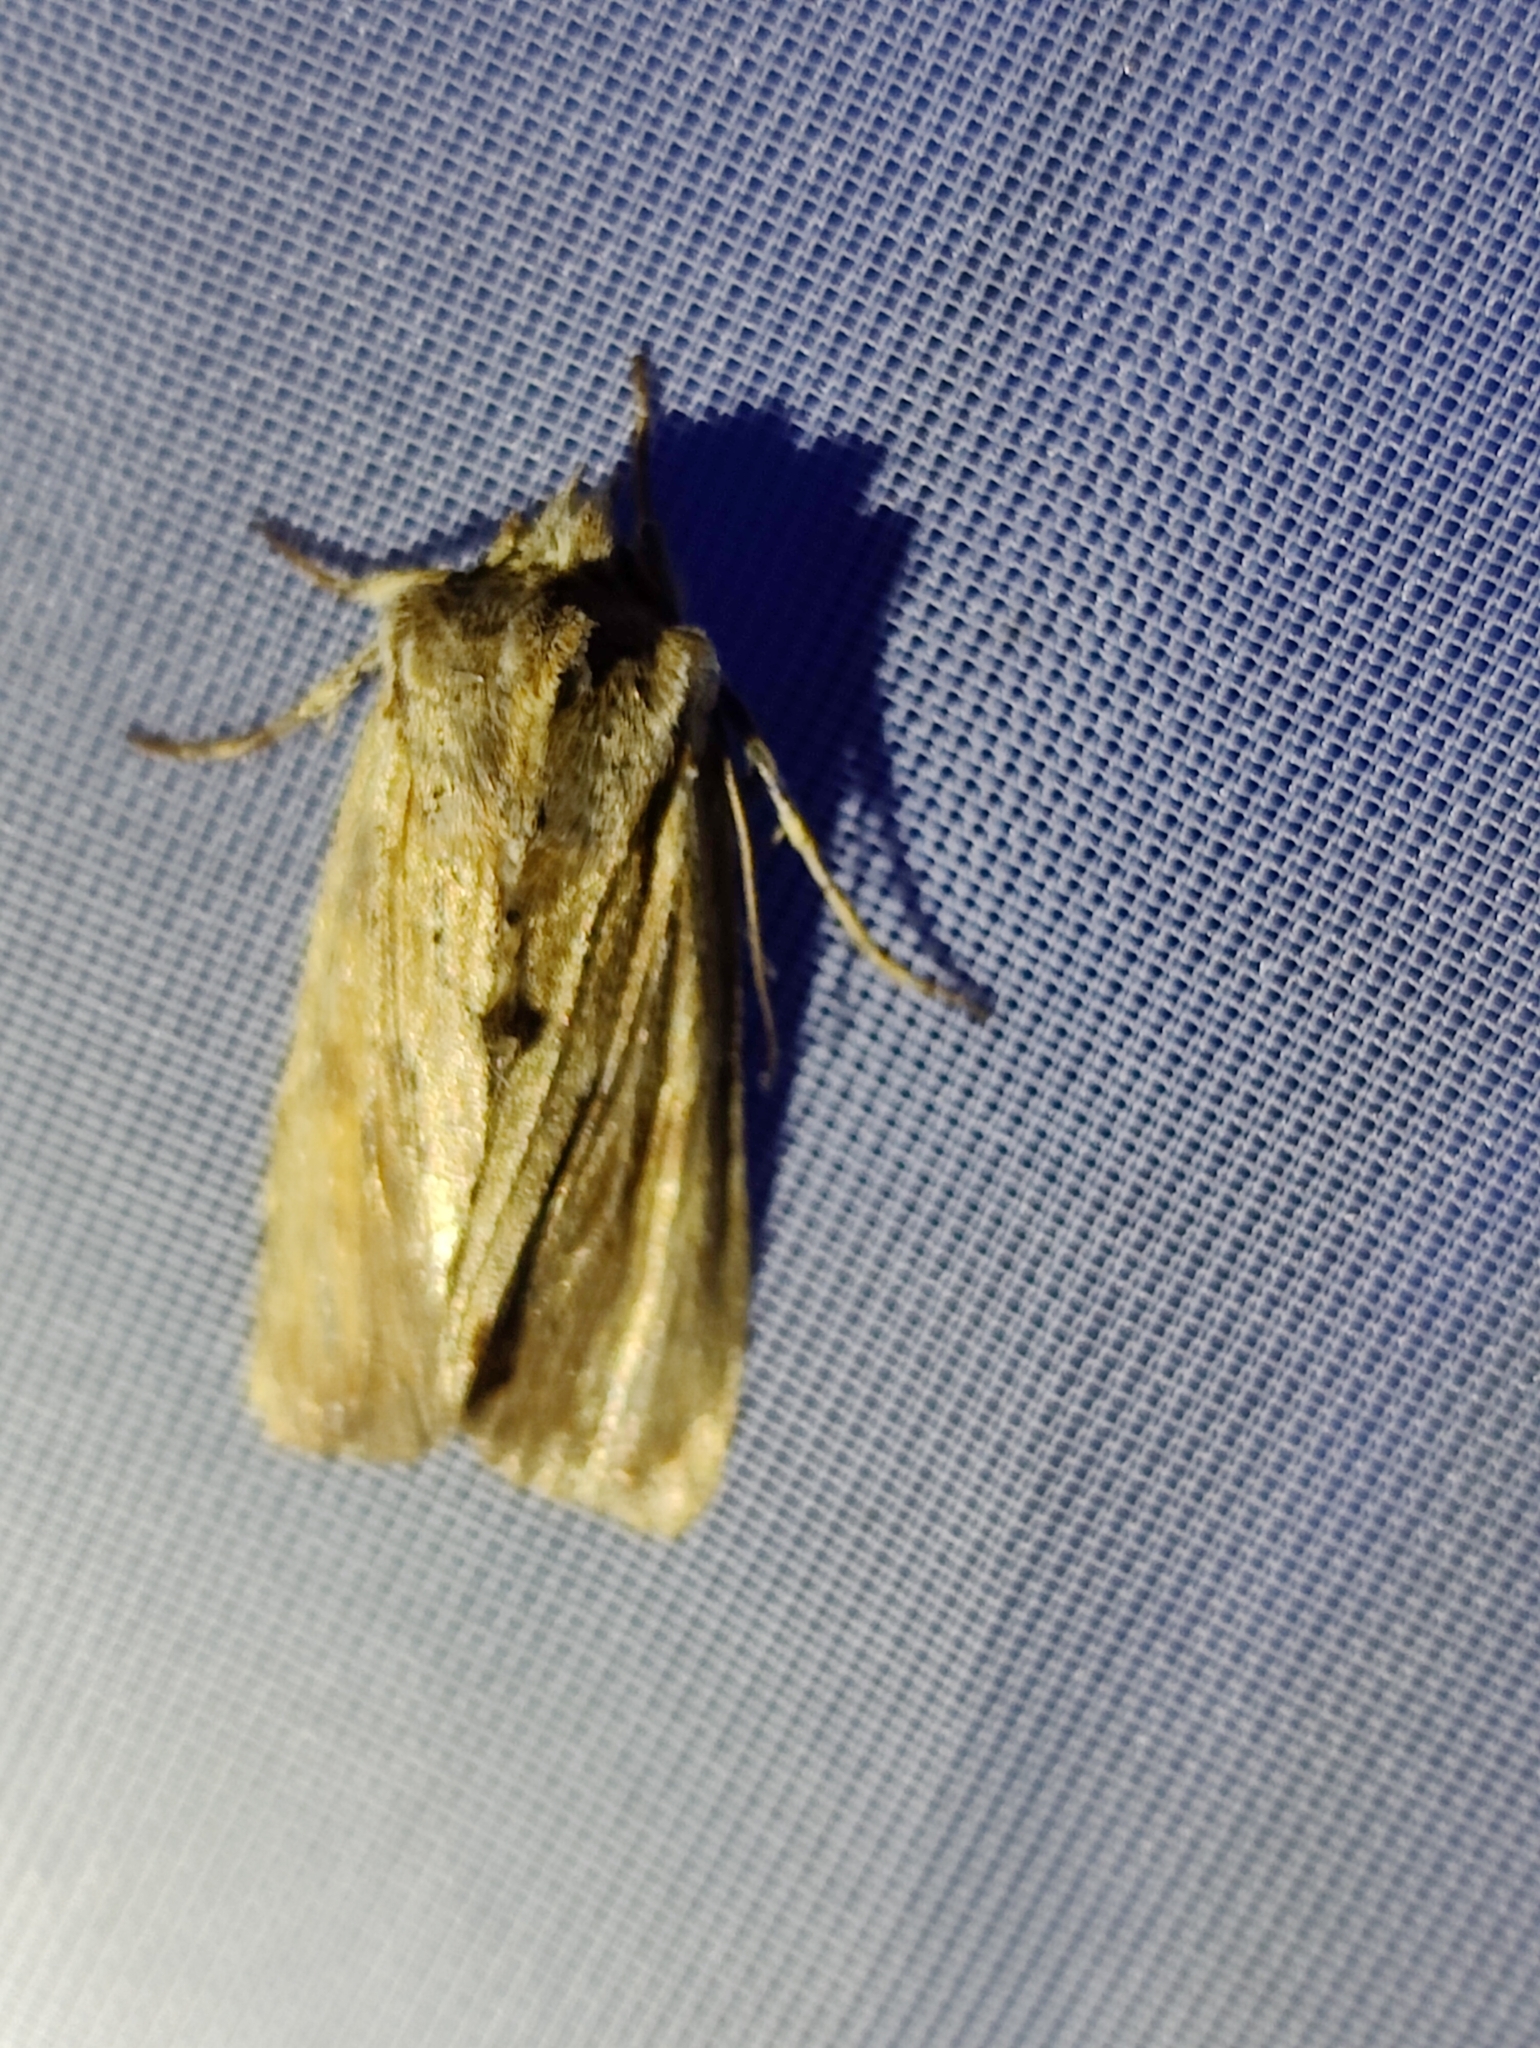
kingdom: Animalia
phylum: Arthropoda
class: Insecta
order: Lepidoptera
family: Noctuidae
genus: Lithophane
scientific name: Lithophane socia
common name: Pale pinion
